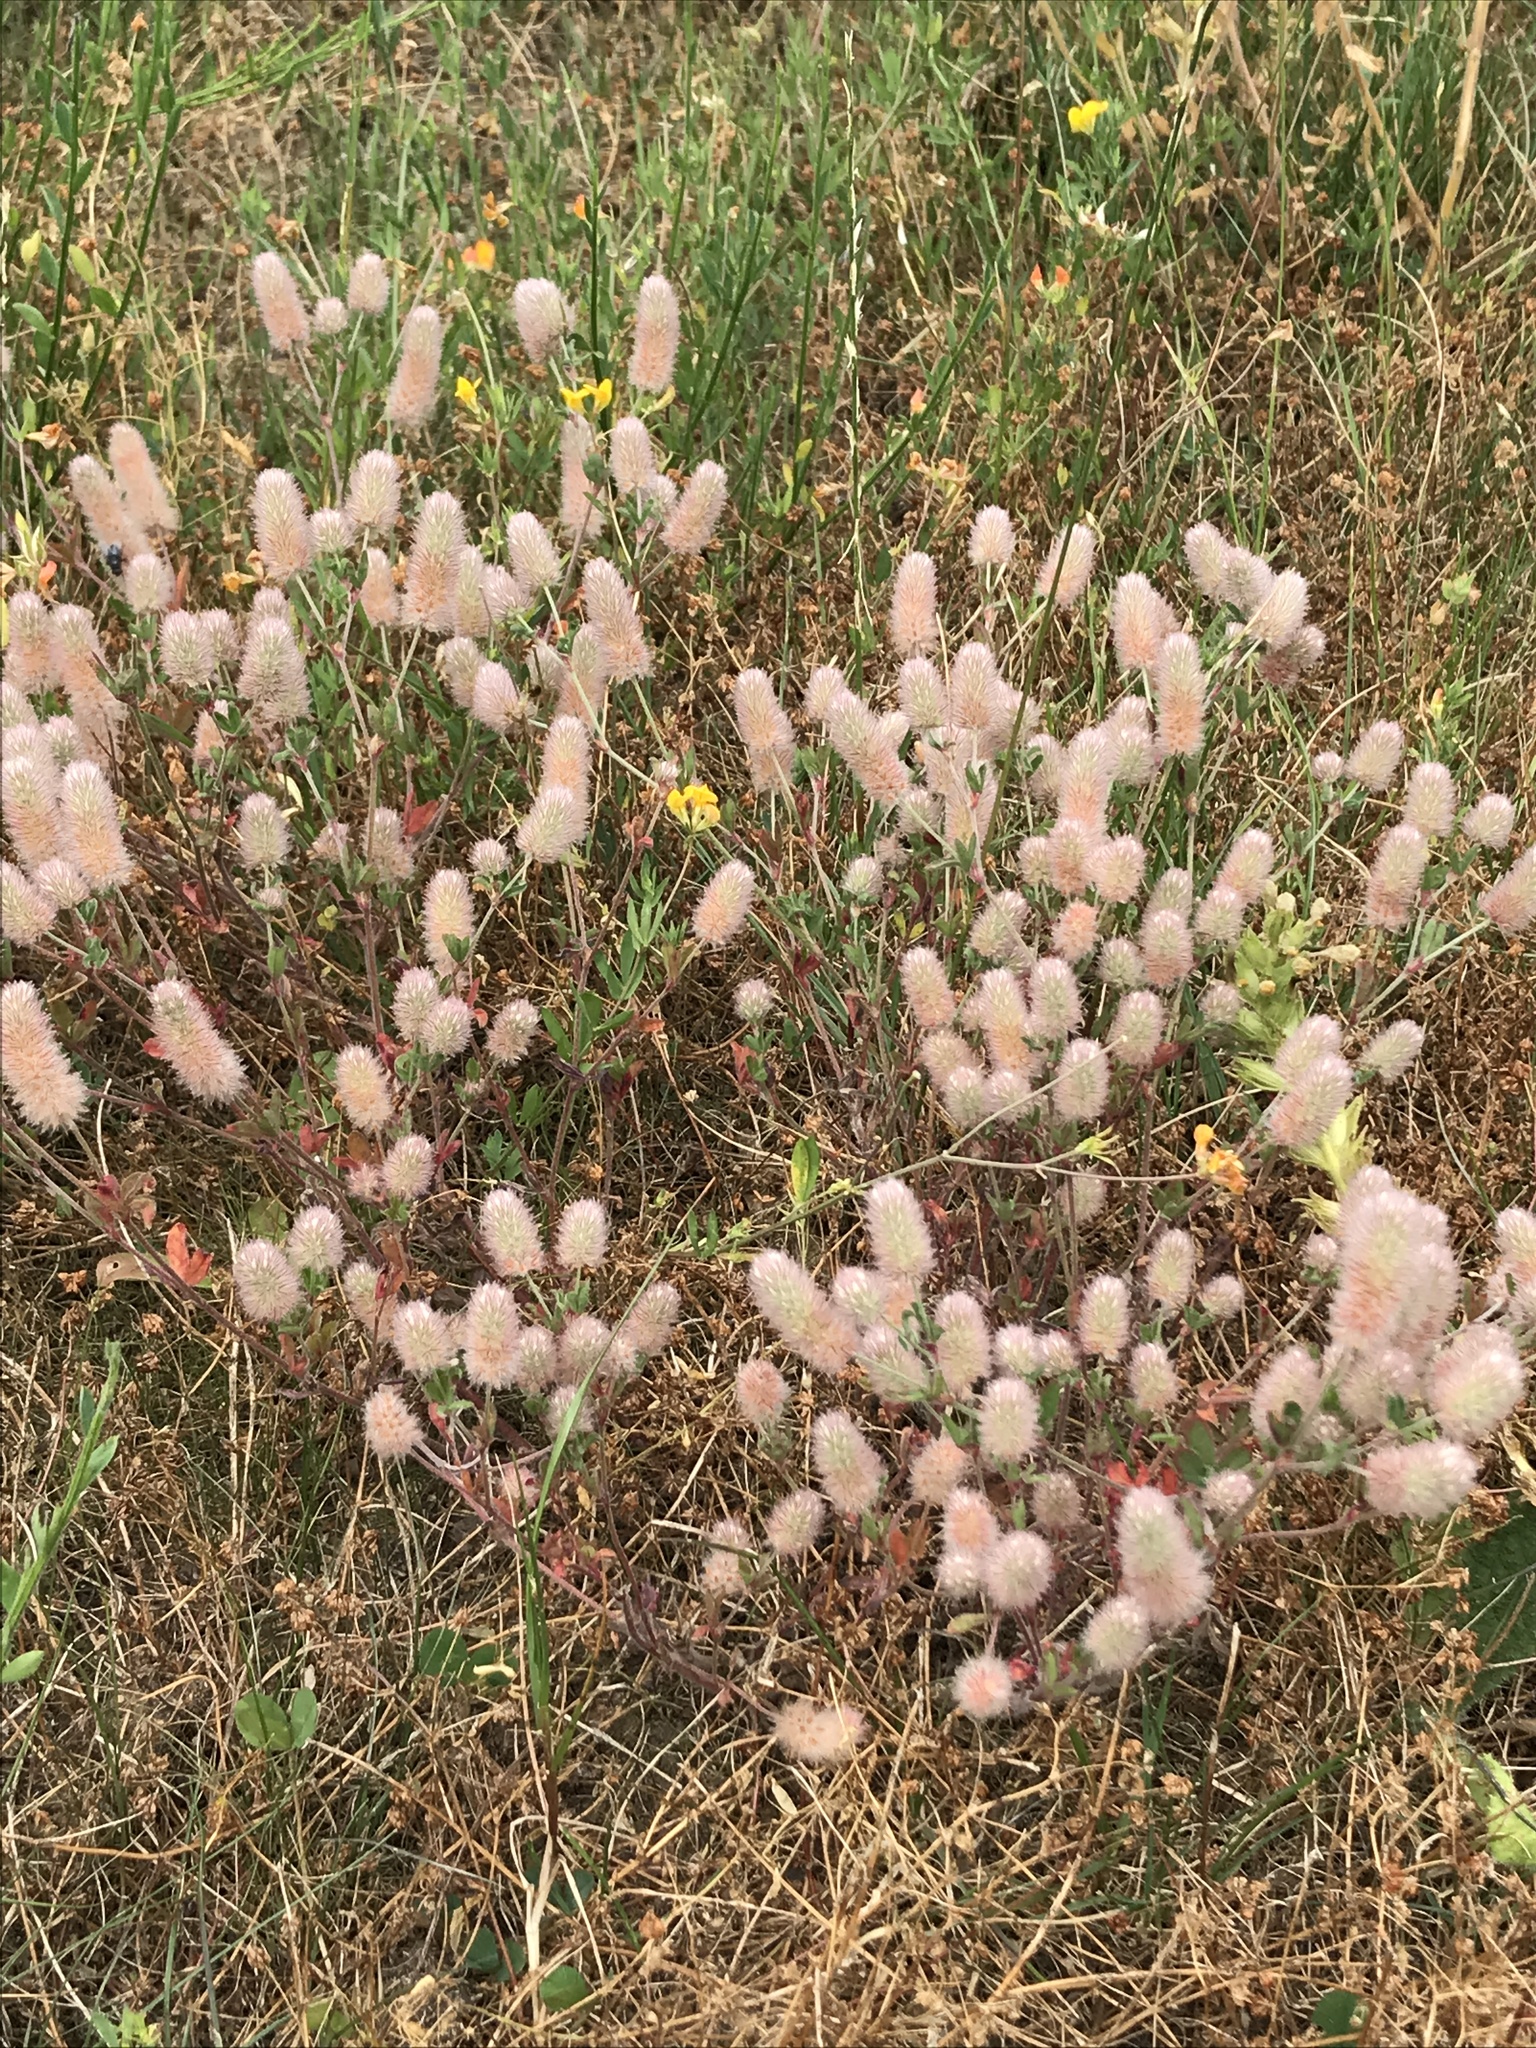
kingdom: Plantae
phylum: Tracheophyta
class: Magnoliopsida
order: Fabales
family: Fabaceae
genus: Trifolium
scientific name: Trifolium arvense
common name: Hare's-foot clover
